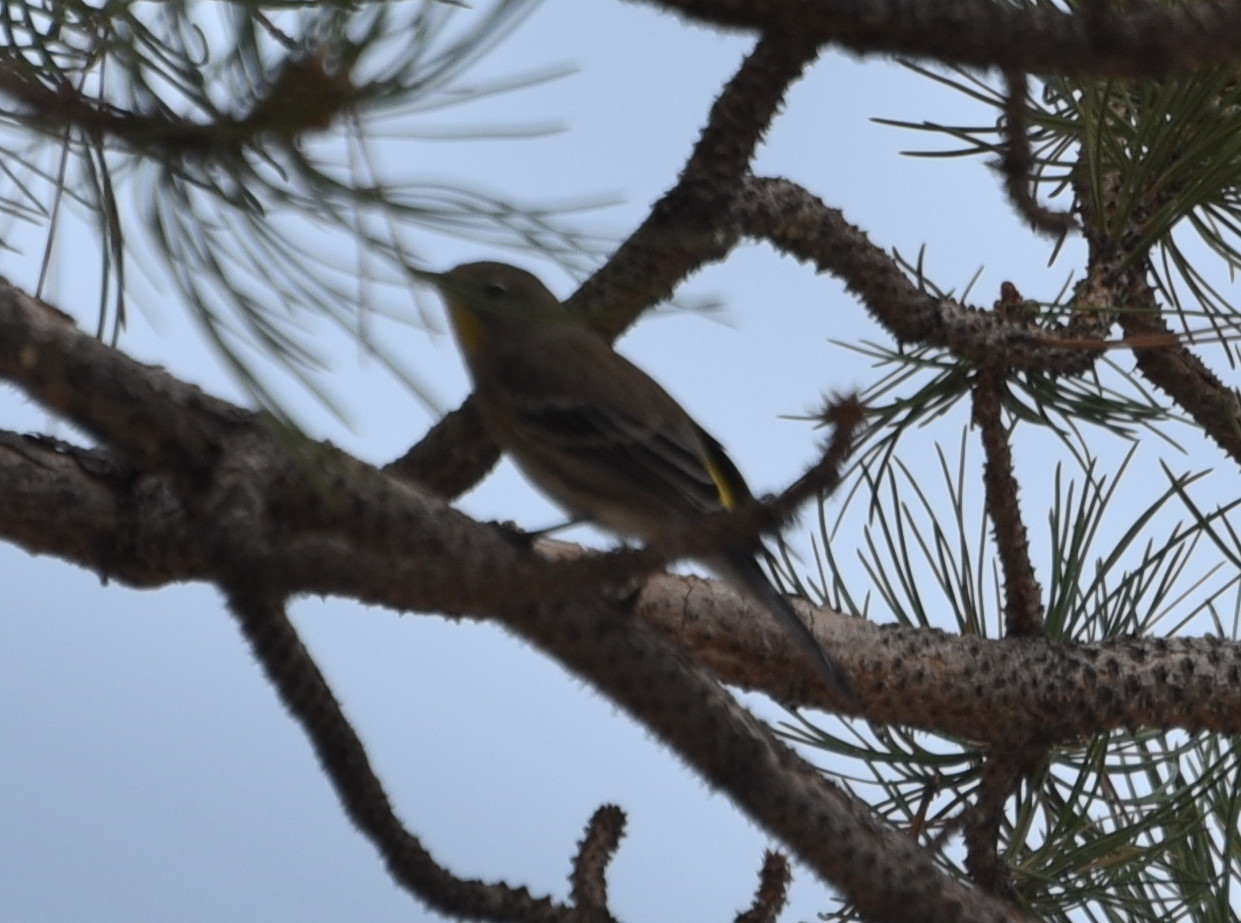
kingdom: Animalia
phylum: Chordata
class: Aves
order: Passeriformes
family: Parulidae
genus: Setophaga
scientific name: Setophaga coronata
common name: Myrtle warbler
